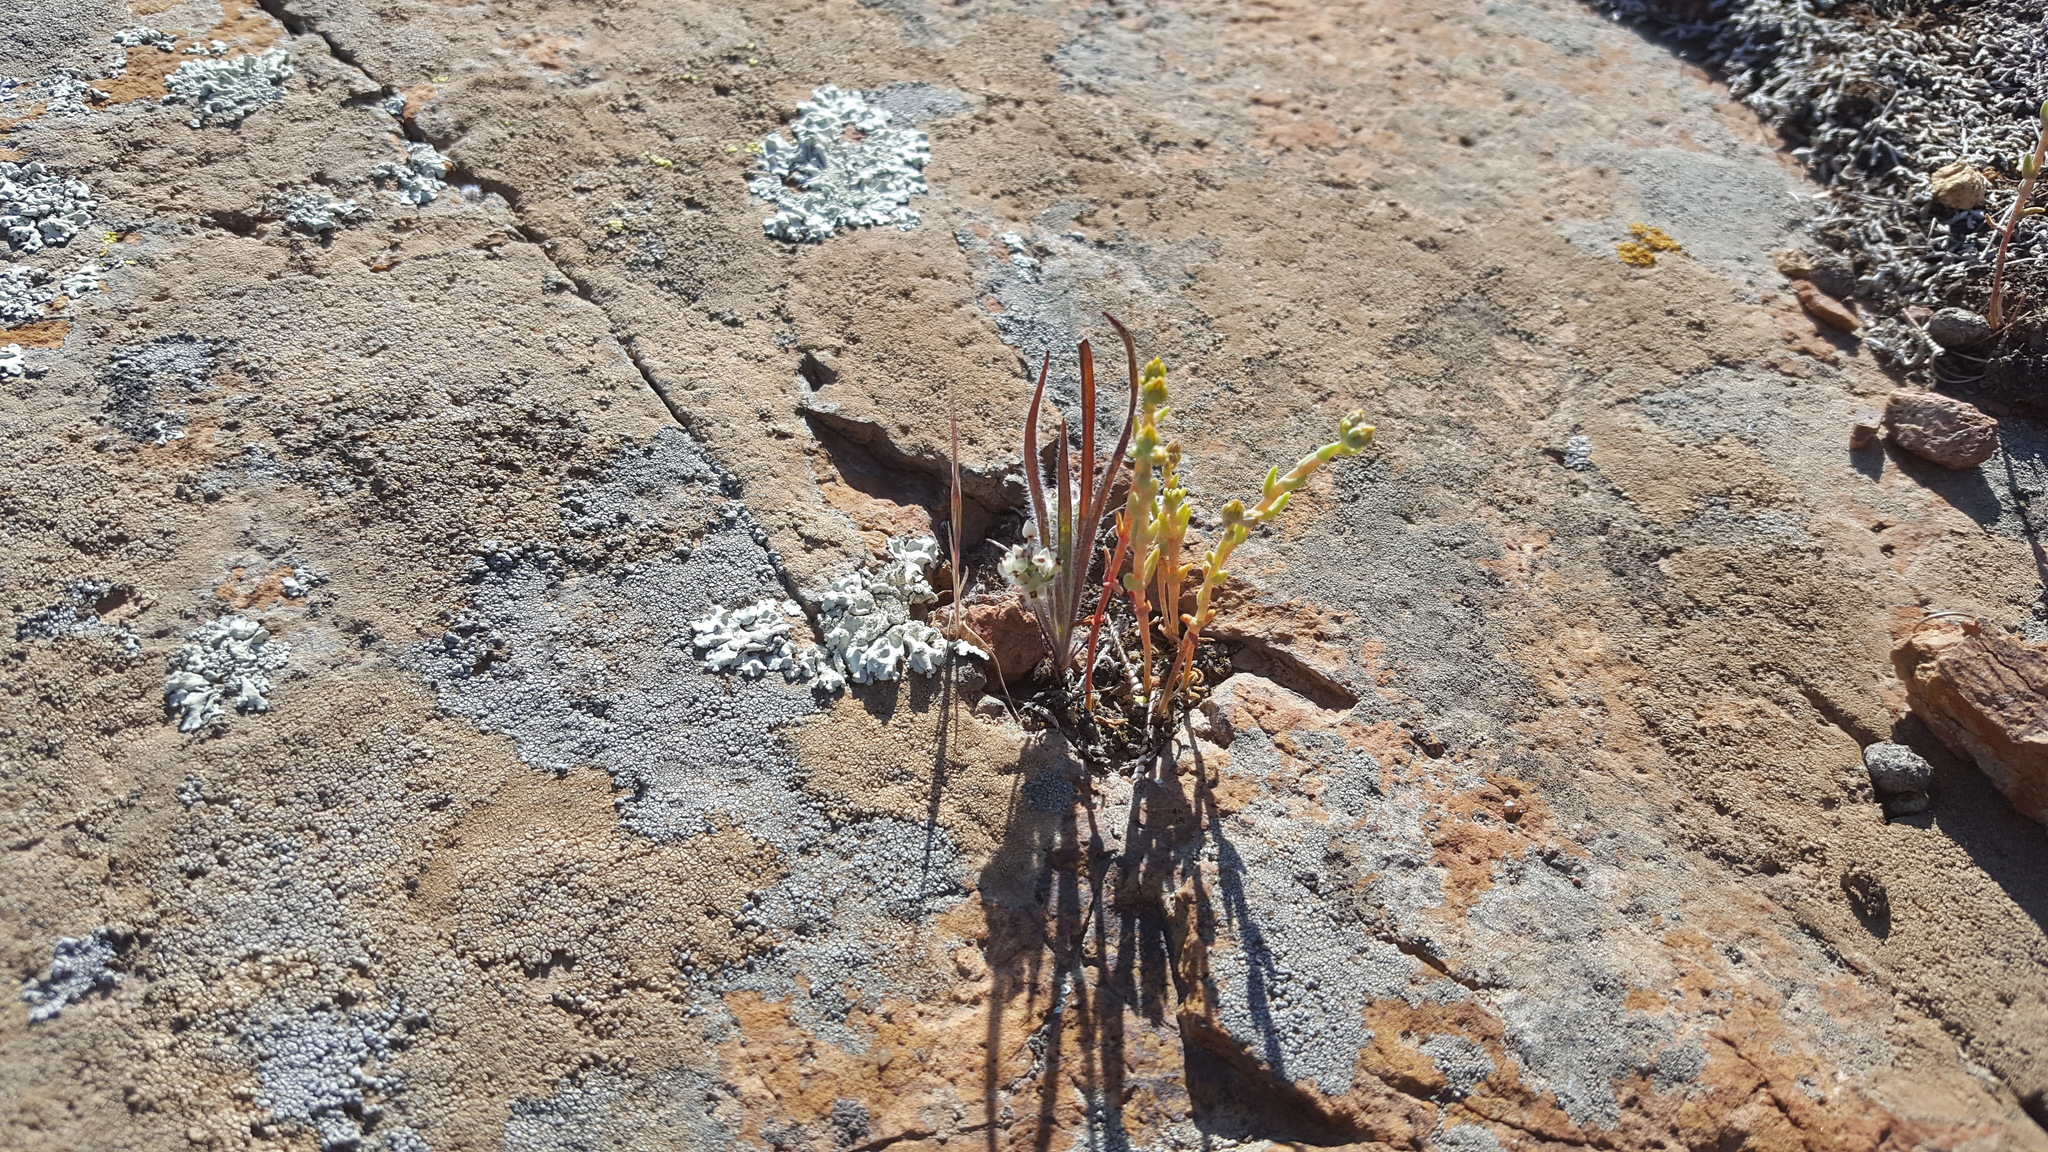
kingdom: Plantae
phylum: Tracheophyta
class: Magnoliopsida
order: Saxifragales
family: Crassulaceae
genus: Dudleya
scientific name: Dudleya variegata
